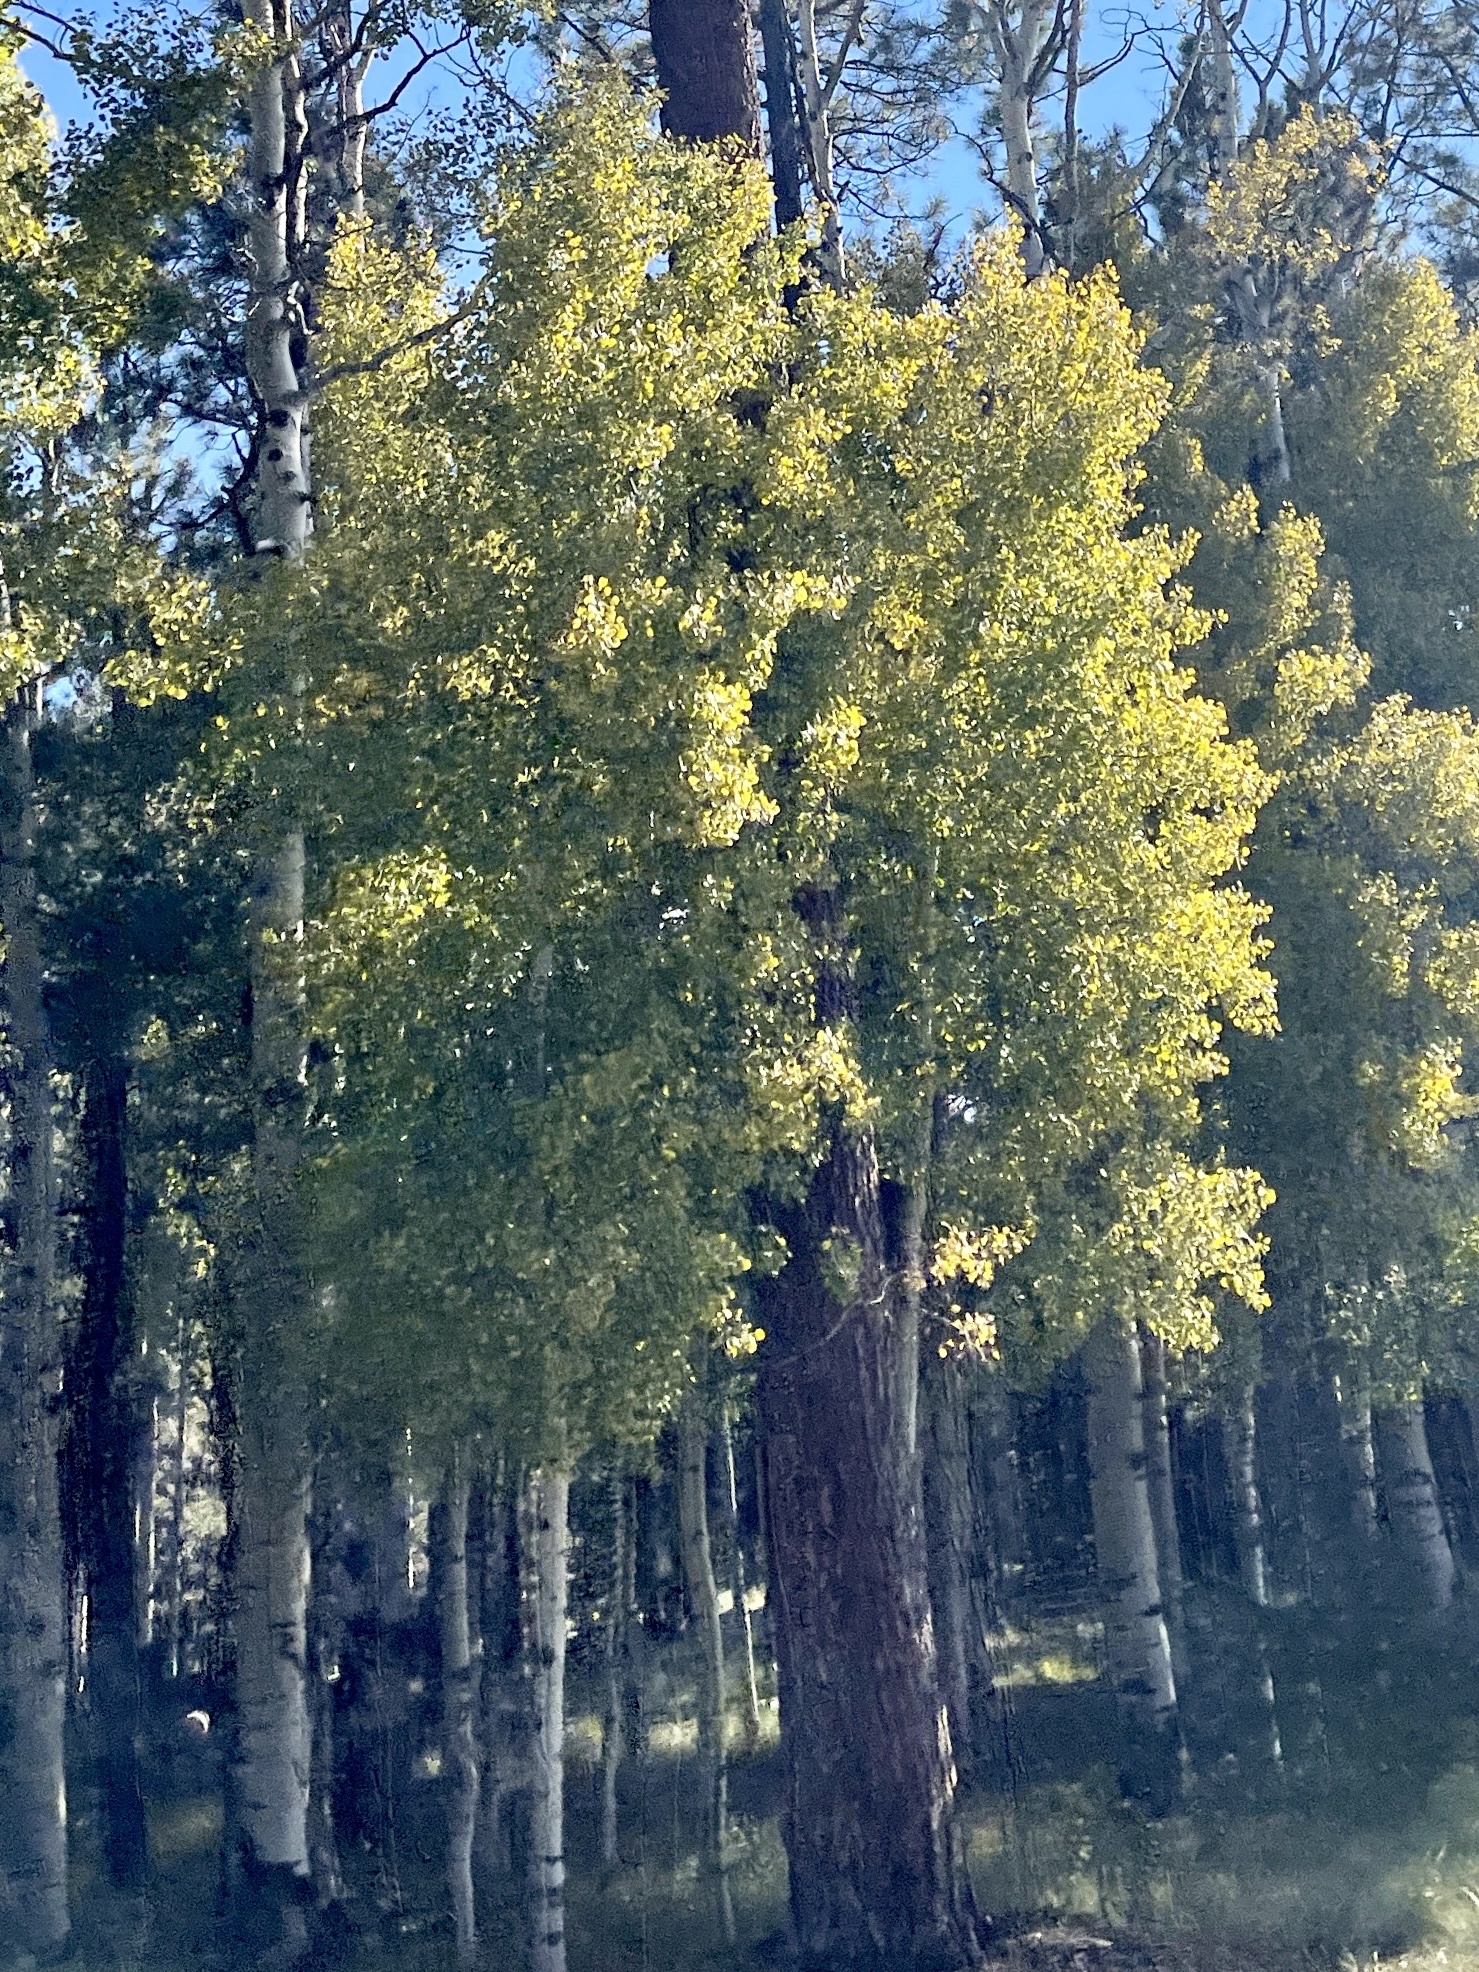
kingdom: Plantae
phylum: Tracheophyta
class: Magnoliopsida
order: Malpighiales
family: Salicaceae
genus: Populus
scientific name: Populus tremuloides
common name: Quaking aspen
